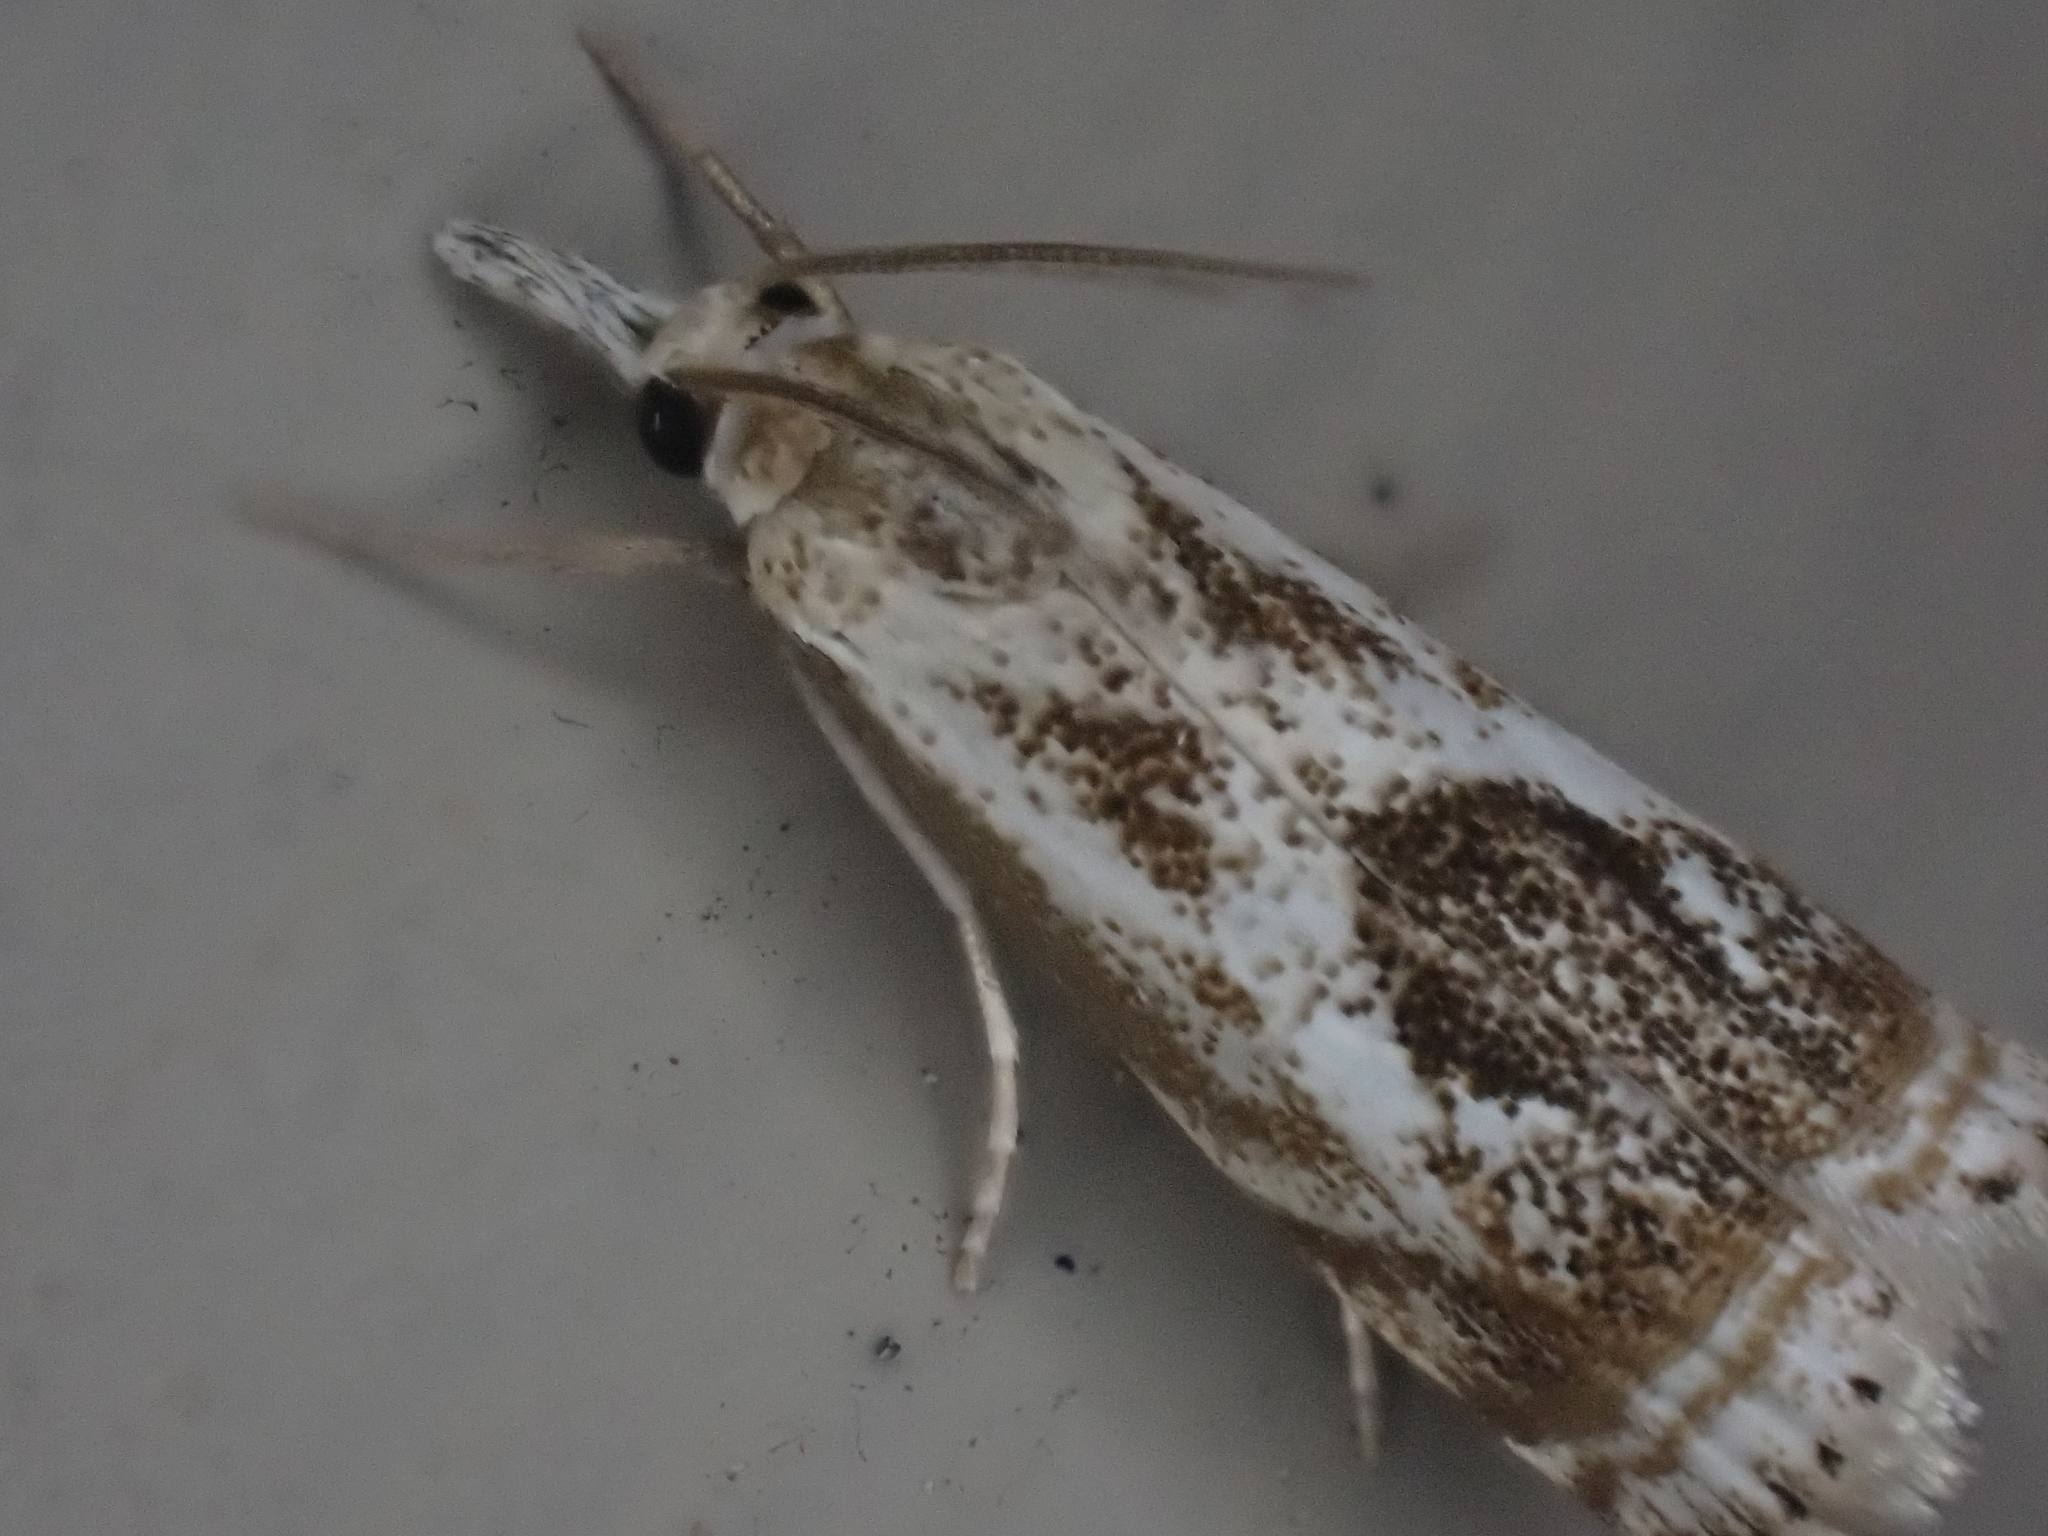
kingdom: Animalia
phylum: Arthropoda
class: Insecta
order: Lepidoptera
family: Crambidae
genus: Microcrambus
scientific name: Microcrambus elegans
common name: Elegant grass-veneer
